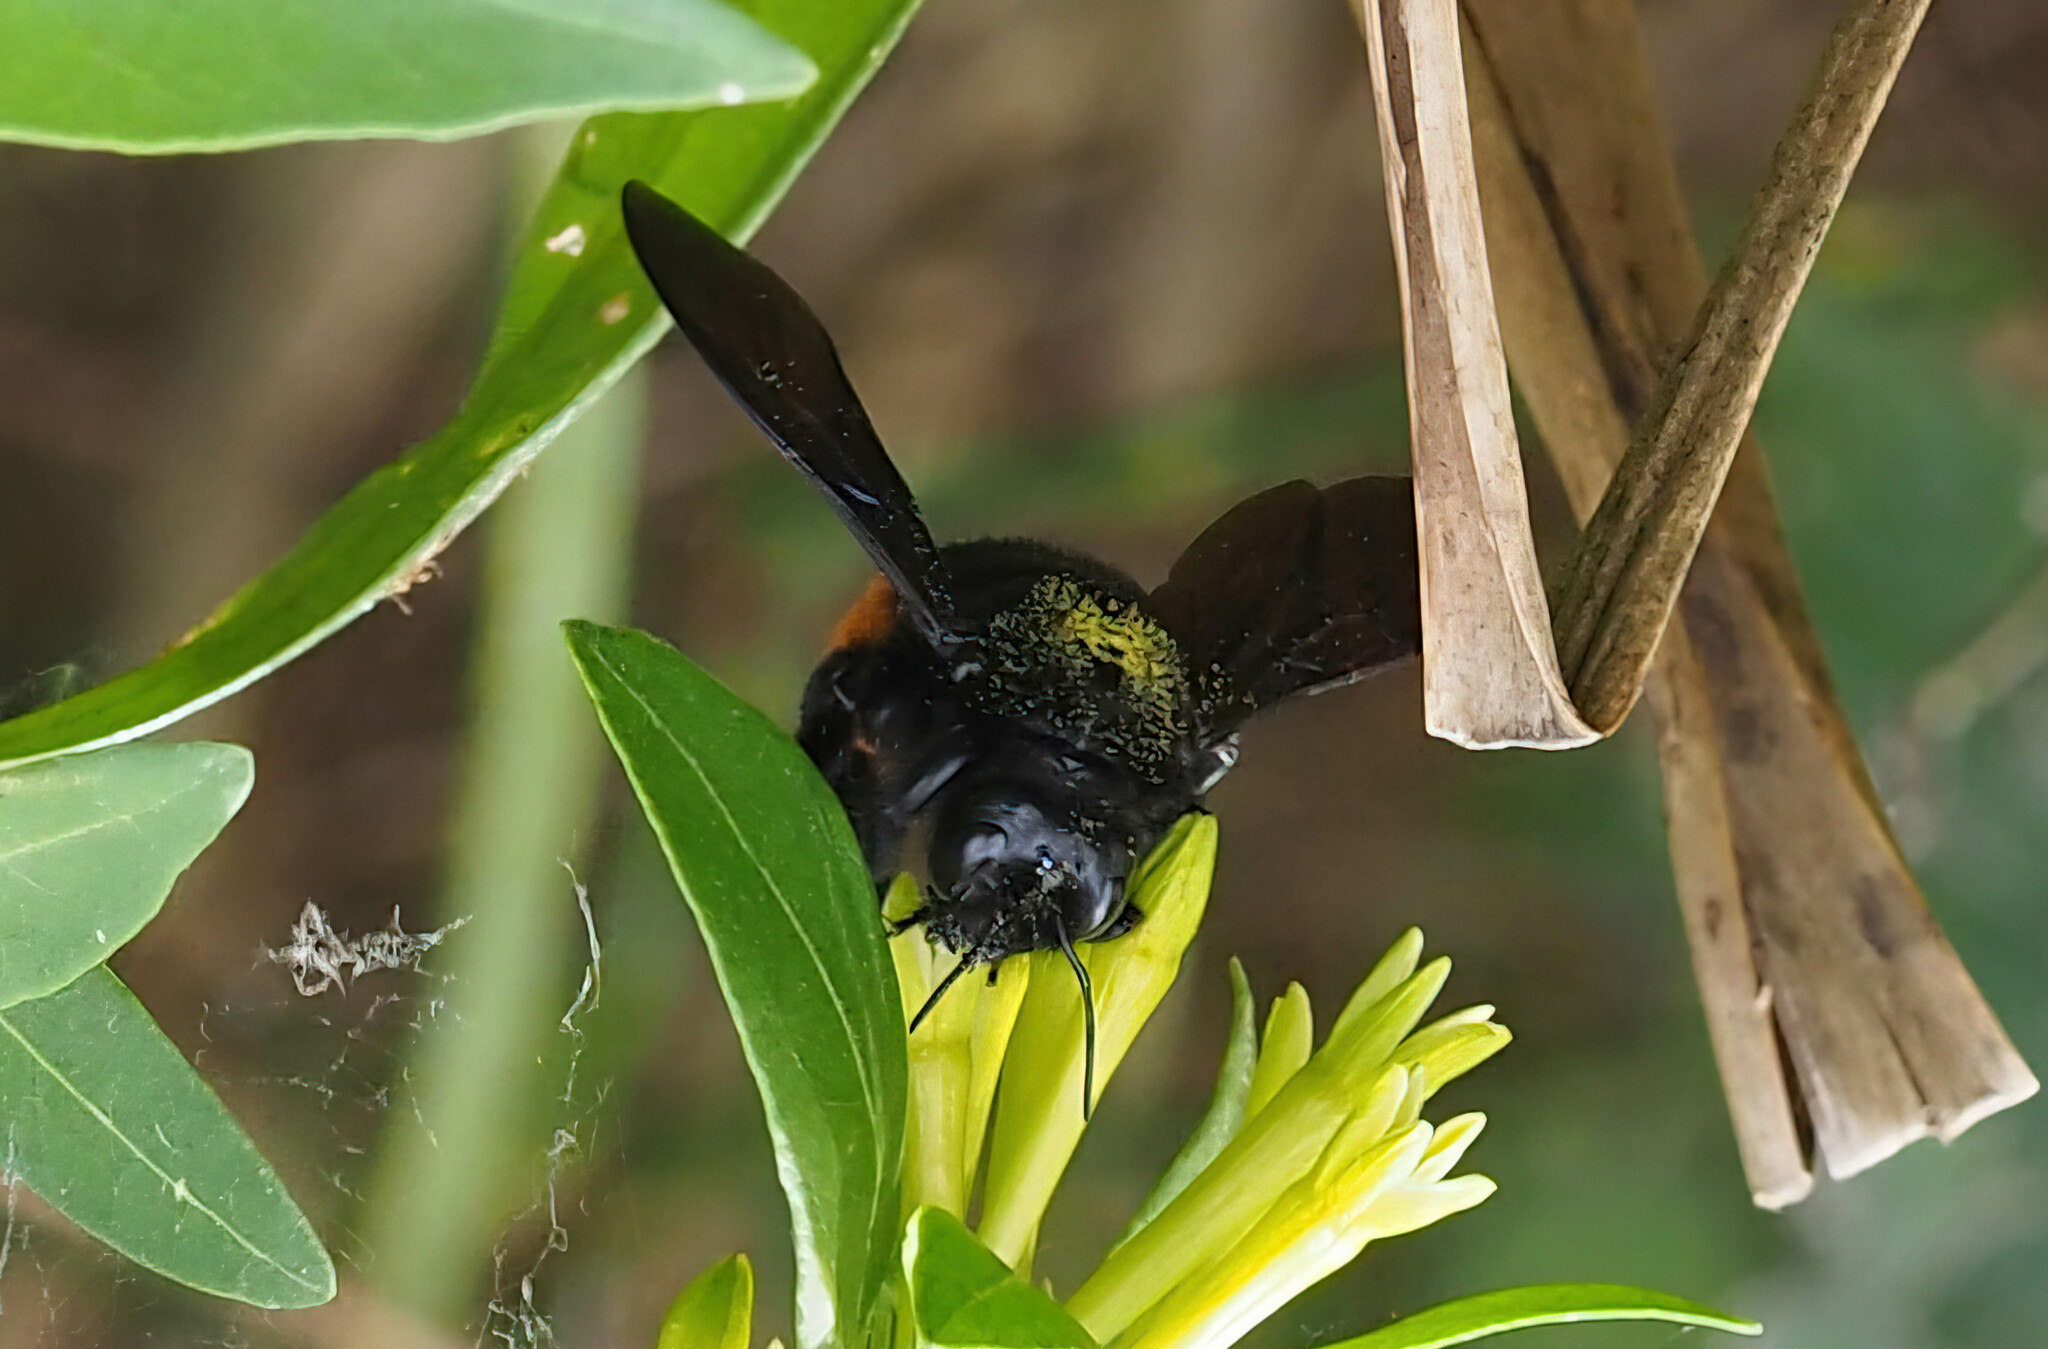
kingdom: Animalia
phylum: Arthropoda
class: Insecta
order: Hymenoptera
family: Apidae
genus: Xylocopa
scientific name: Xylocopa augusti
